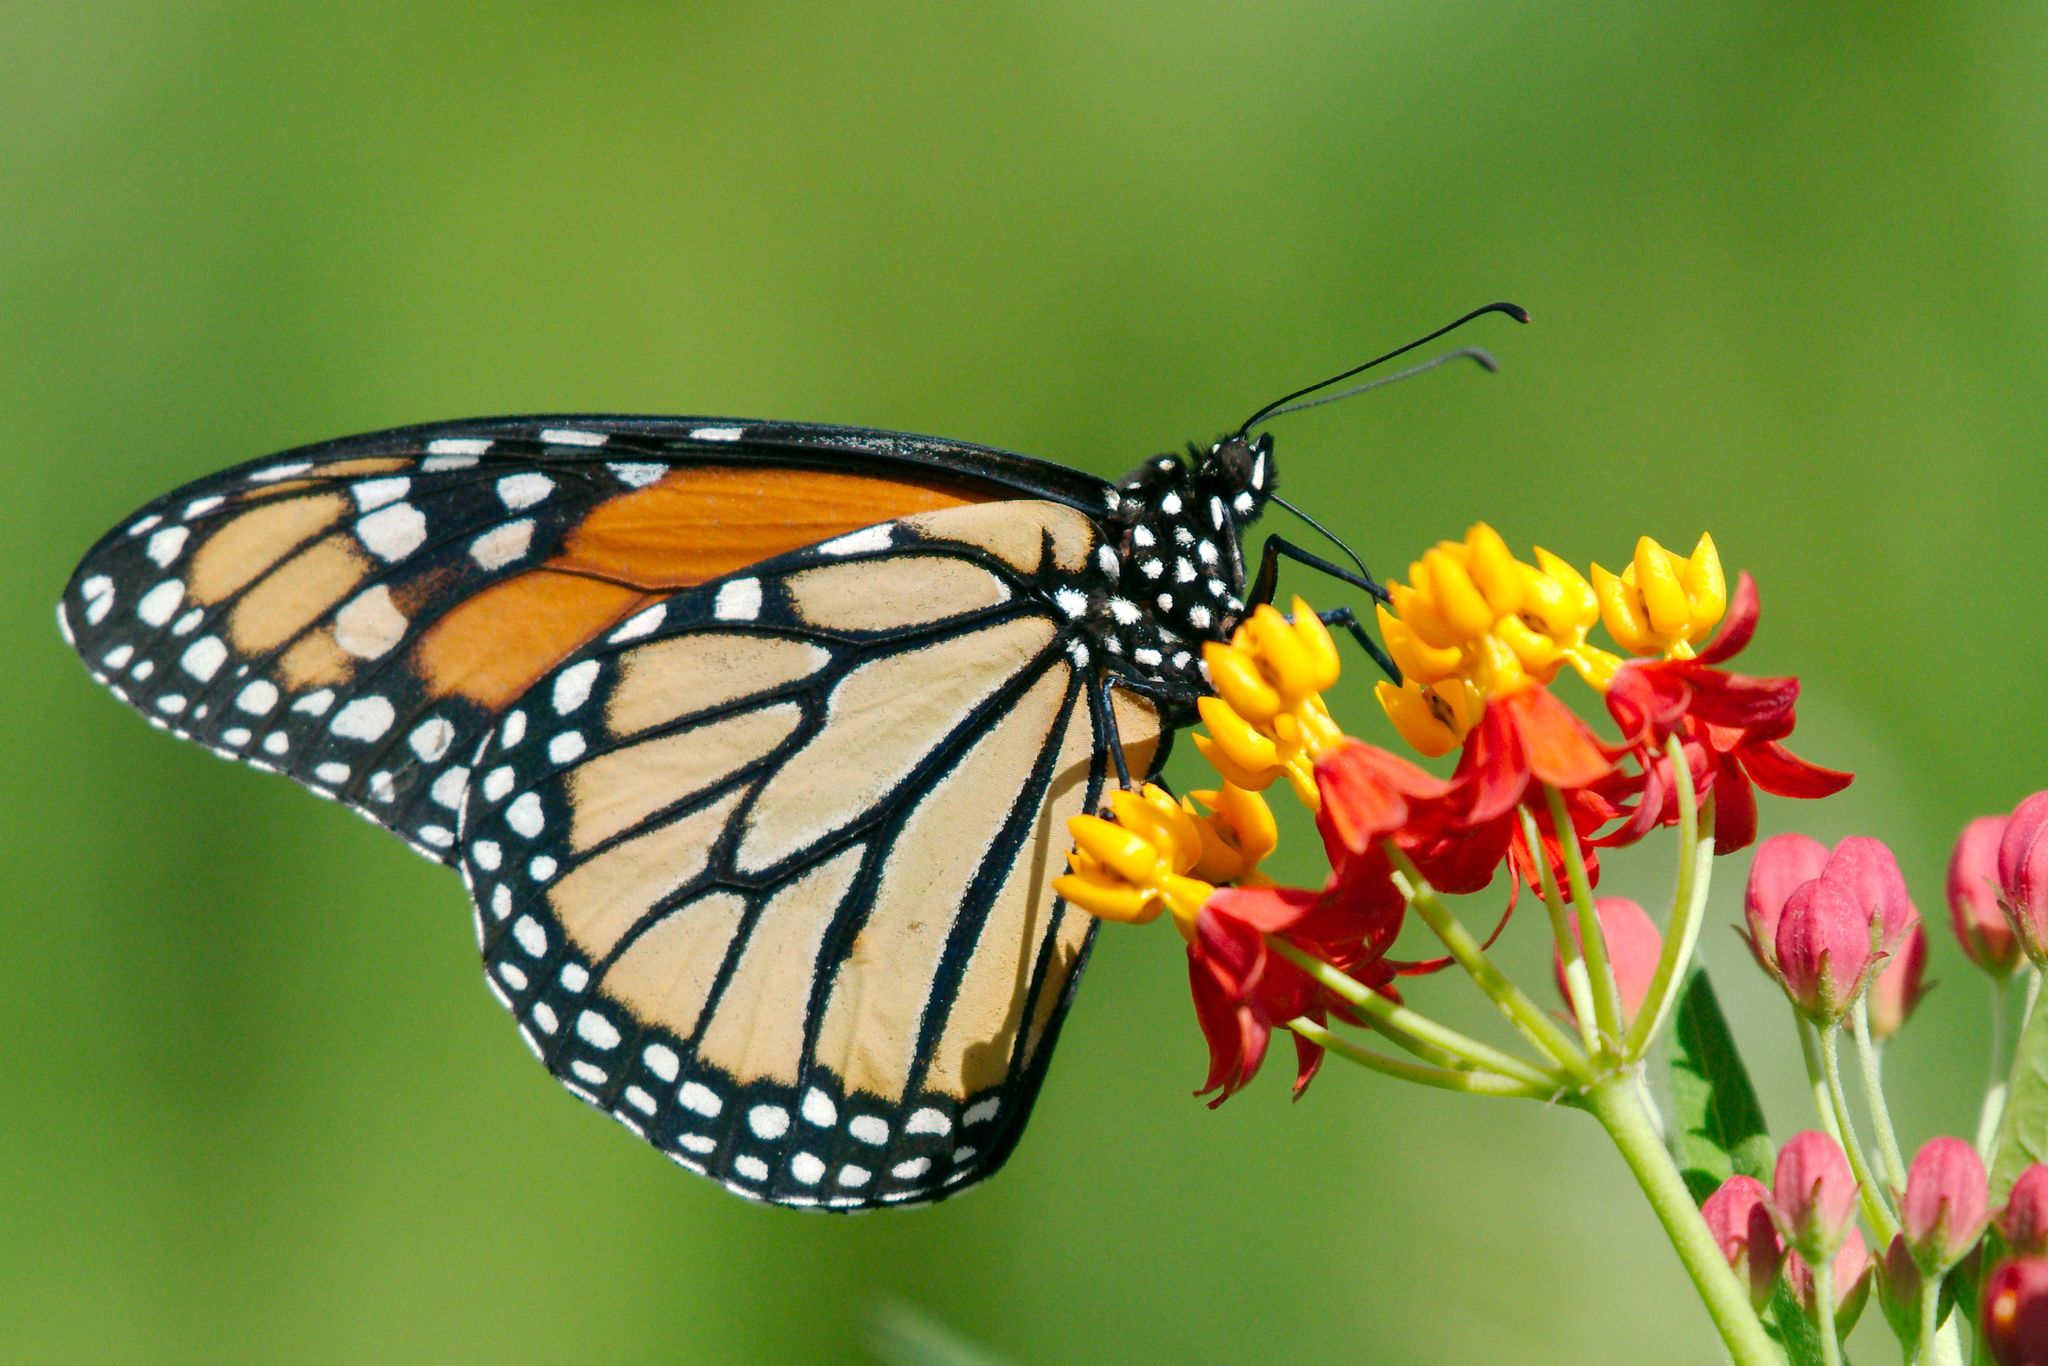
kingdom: Animalia
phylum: Arthropoda
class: Insecta
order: Lepidoptera
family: Nymphalidae
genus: Danaus
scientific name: Danaus plexippus
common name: Monarch
